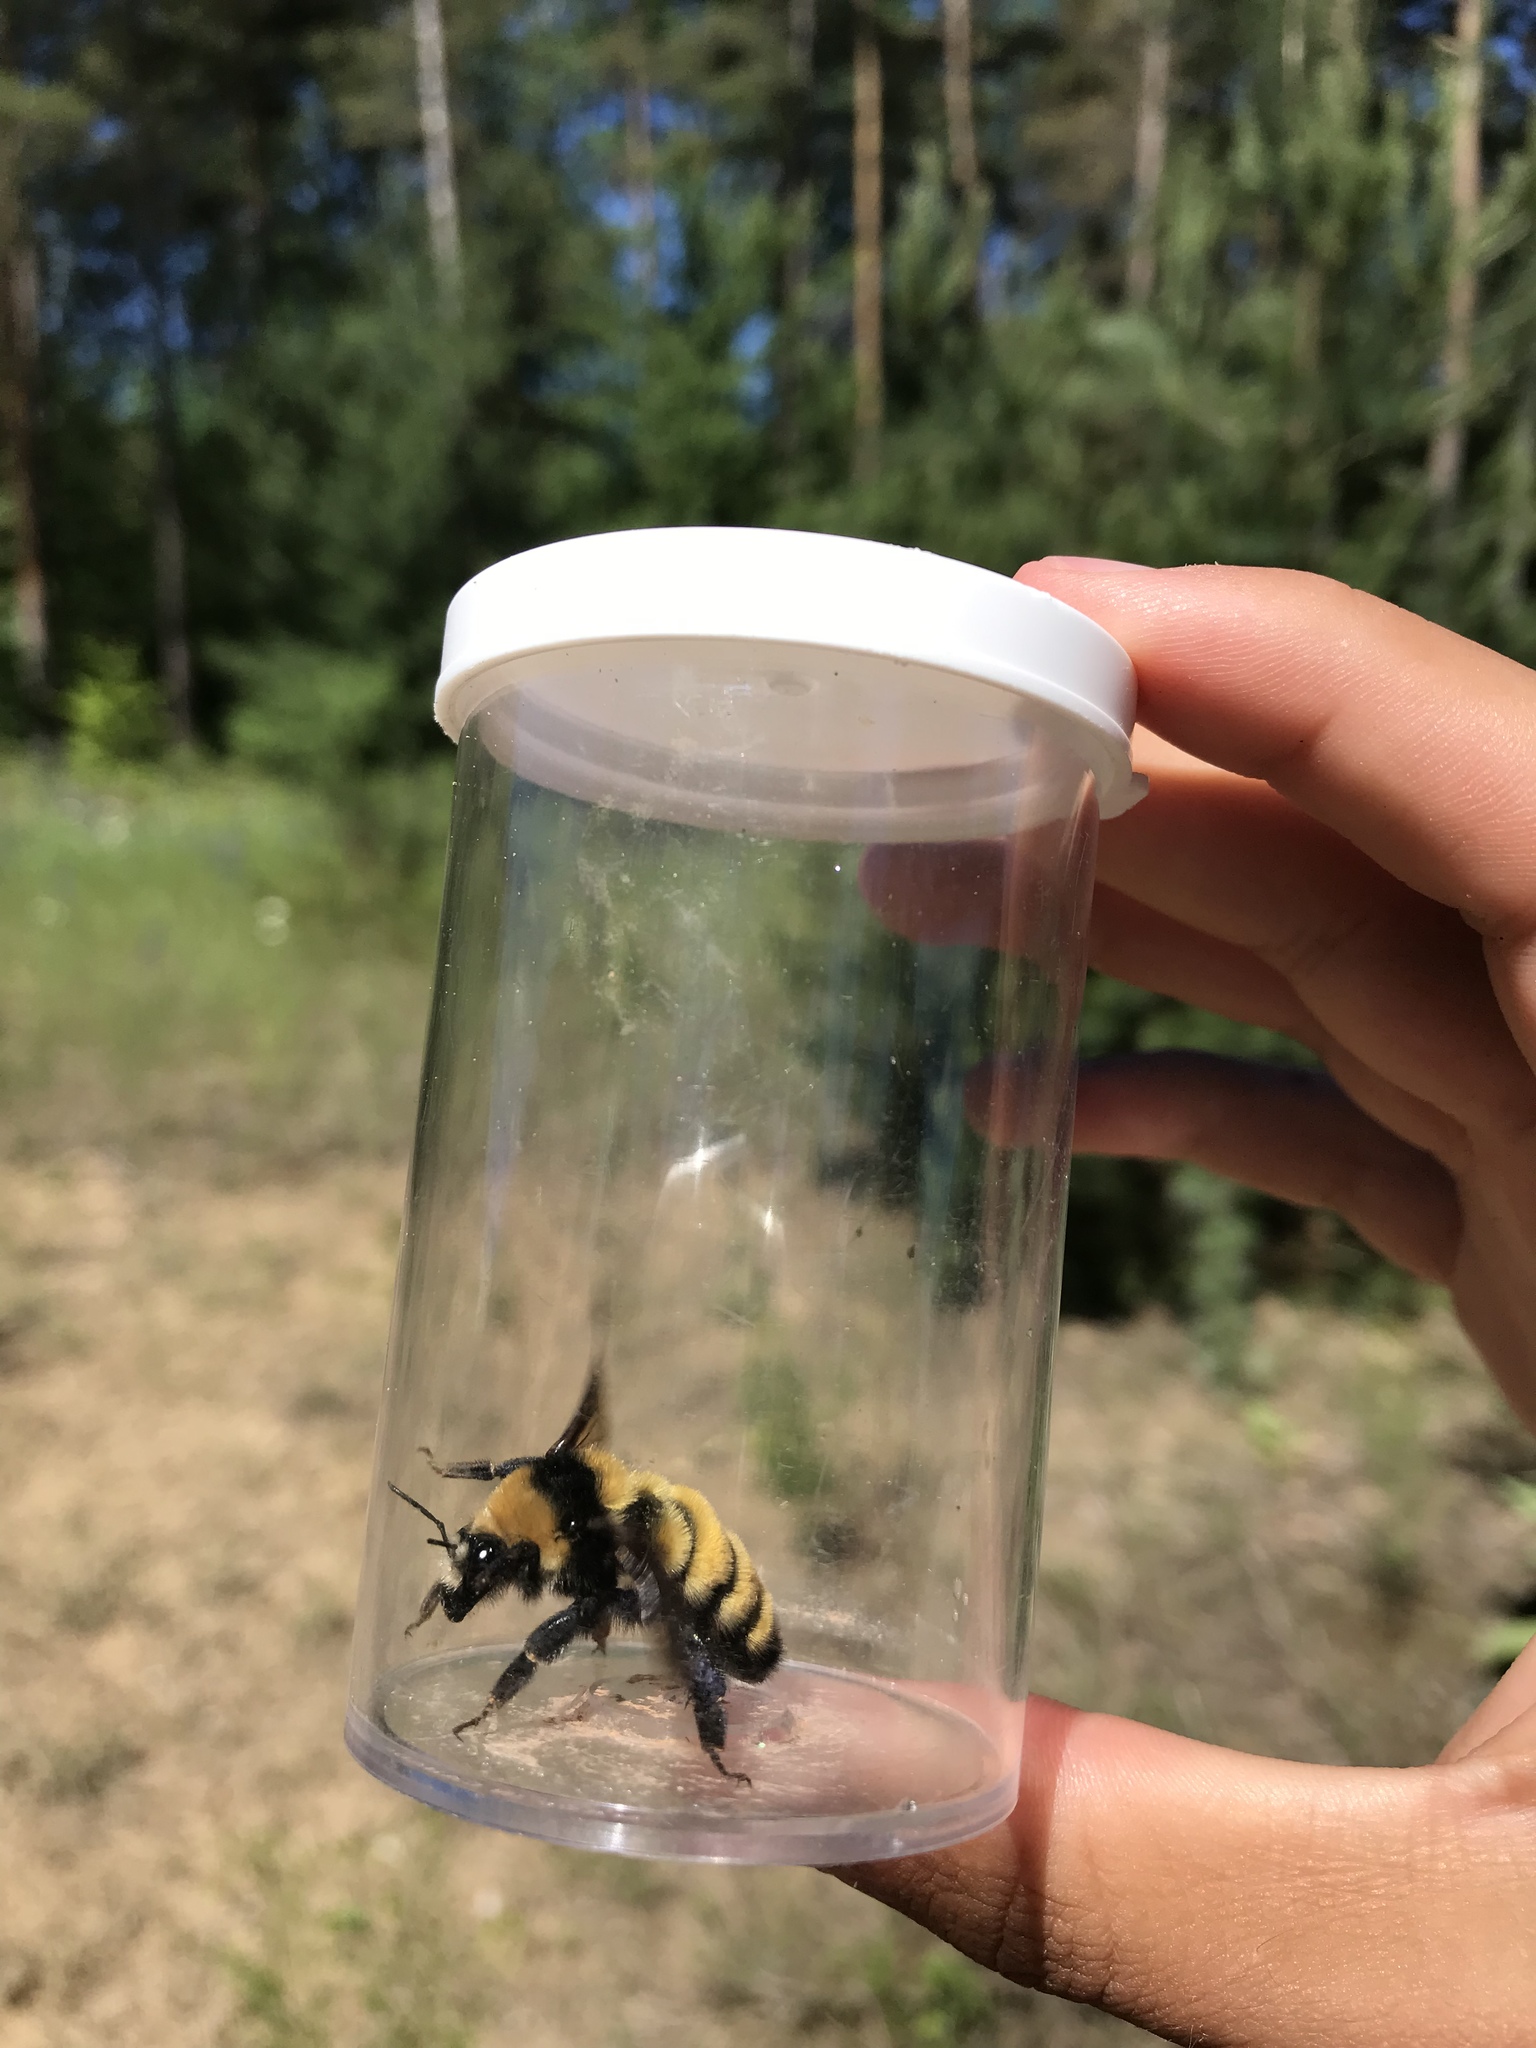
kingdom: Animalia
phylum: Arthropoda
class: Insecta
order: Hymenoptera
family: Apidae
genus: Bombus
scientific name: Bombus borealis
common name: Northern amber bumble bee
